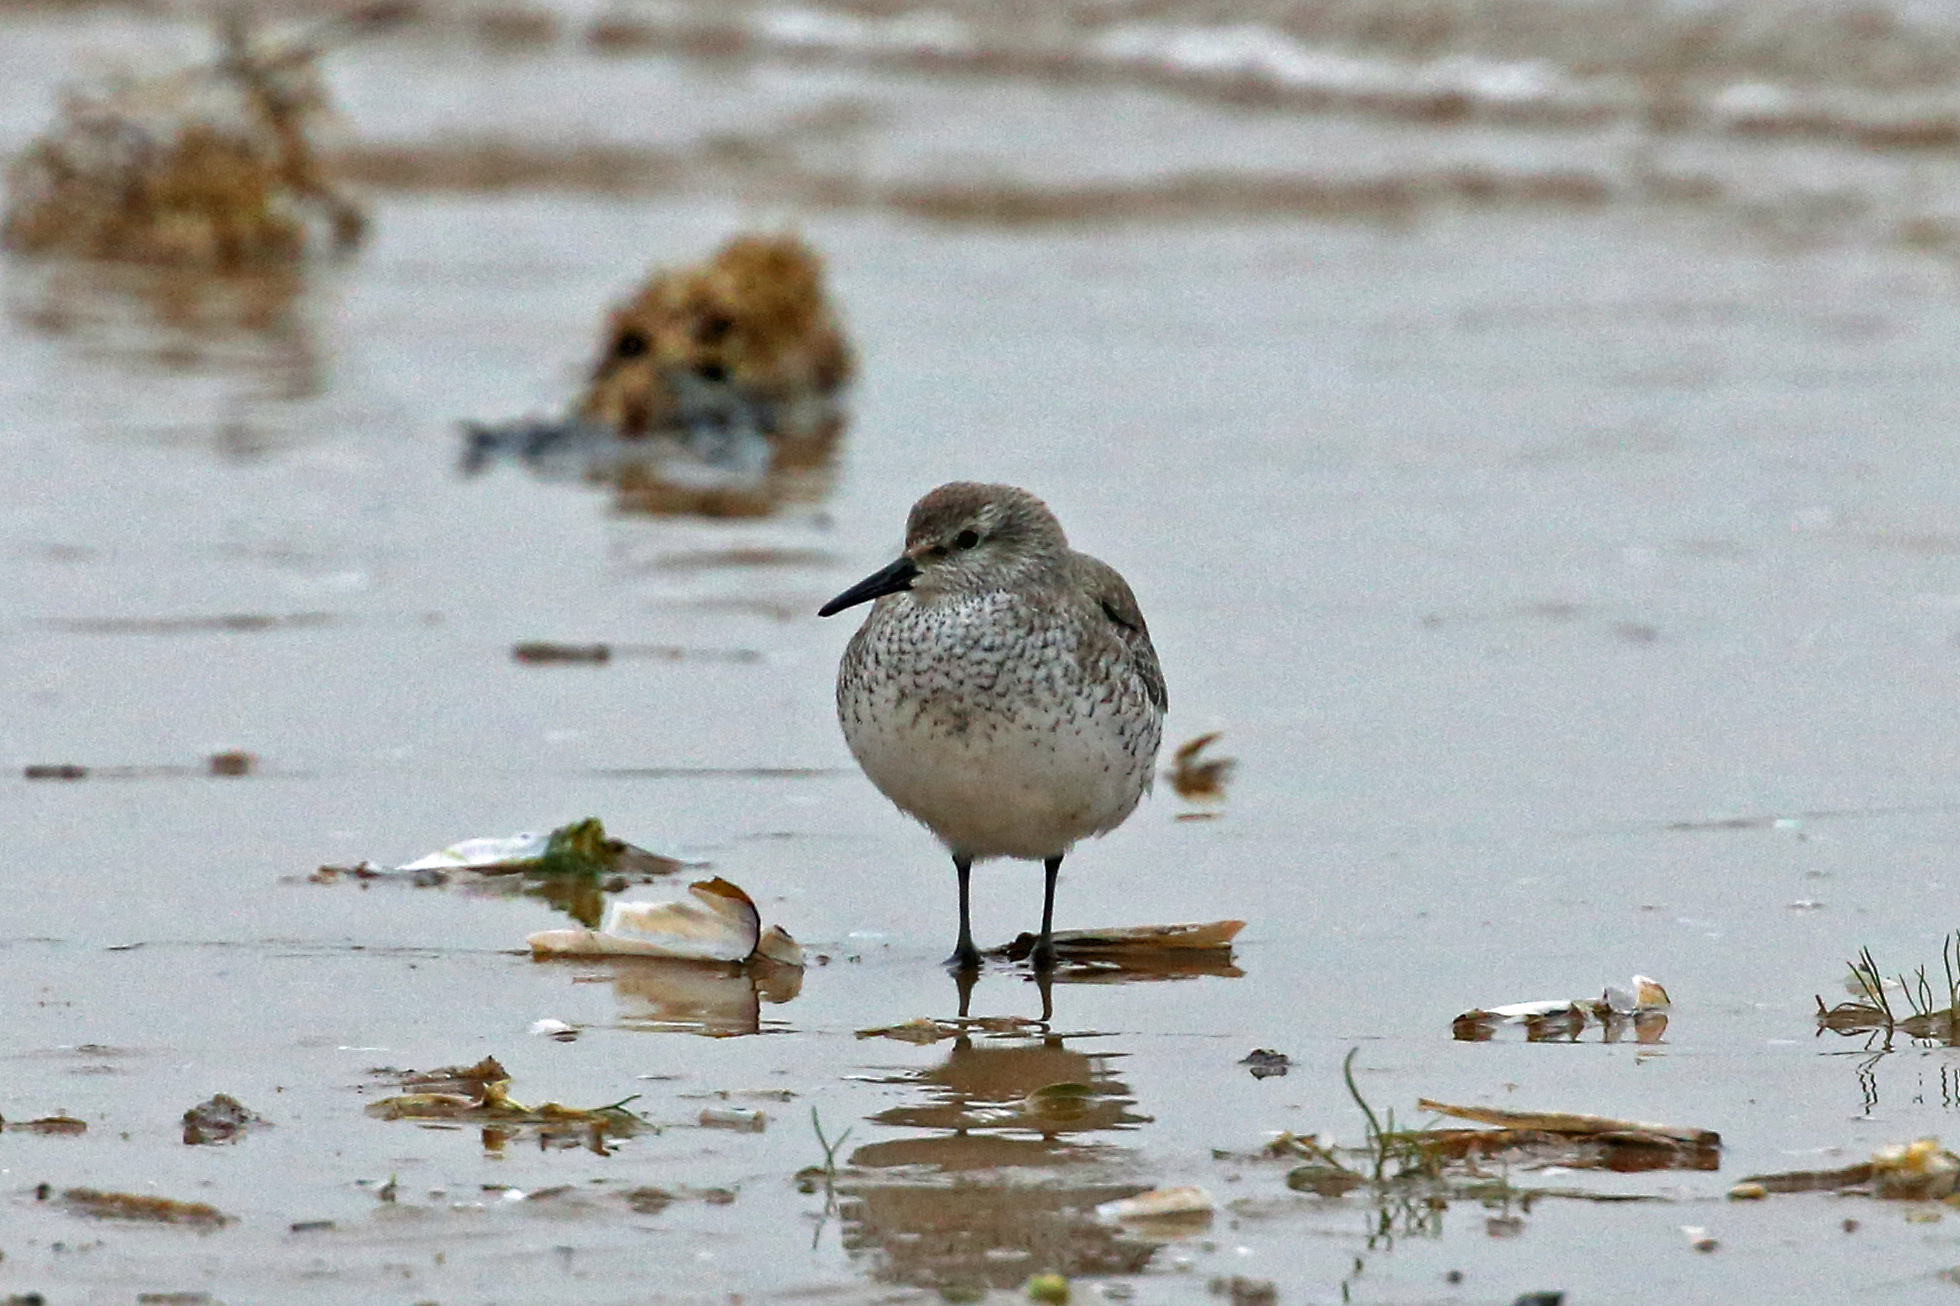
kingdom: Animalia
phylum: Chordata
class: Aves
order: Charadriiformes
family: Scolopacidae
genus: Calidris
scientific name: Calidris canutus
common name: Red knot
